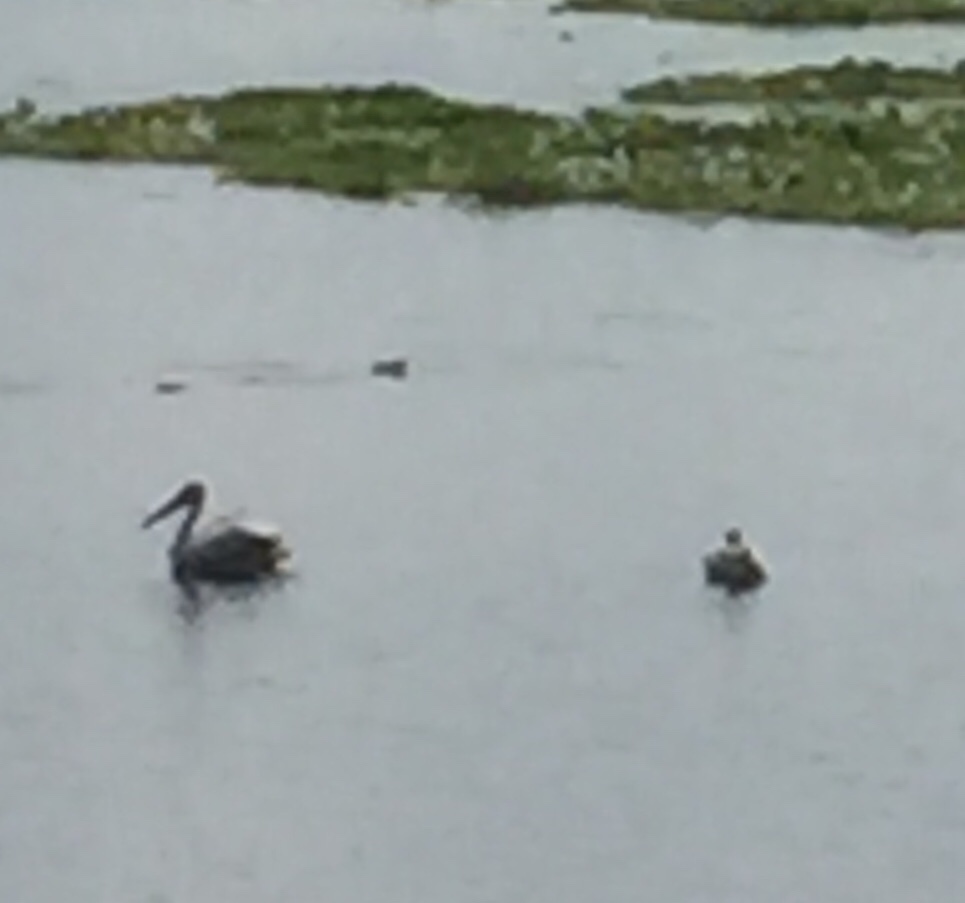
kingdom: Animalia
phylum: Chordata
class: Aves
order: Pelecaniformes
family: Pelecanidae
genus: Pelecanus
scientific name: Pelecanus philippensis
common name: Spot-billed pelican
